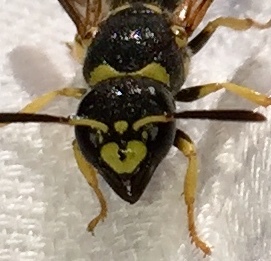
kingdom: Animalia
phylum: Arthropoda
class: Insecta
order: Hymenoptera
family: Vespidae
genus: Ancistrocerus
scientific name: Ancistrocerus adiabatus
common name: Bramble mason wasp
